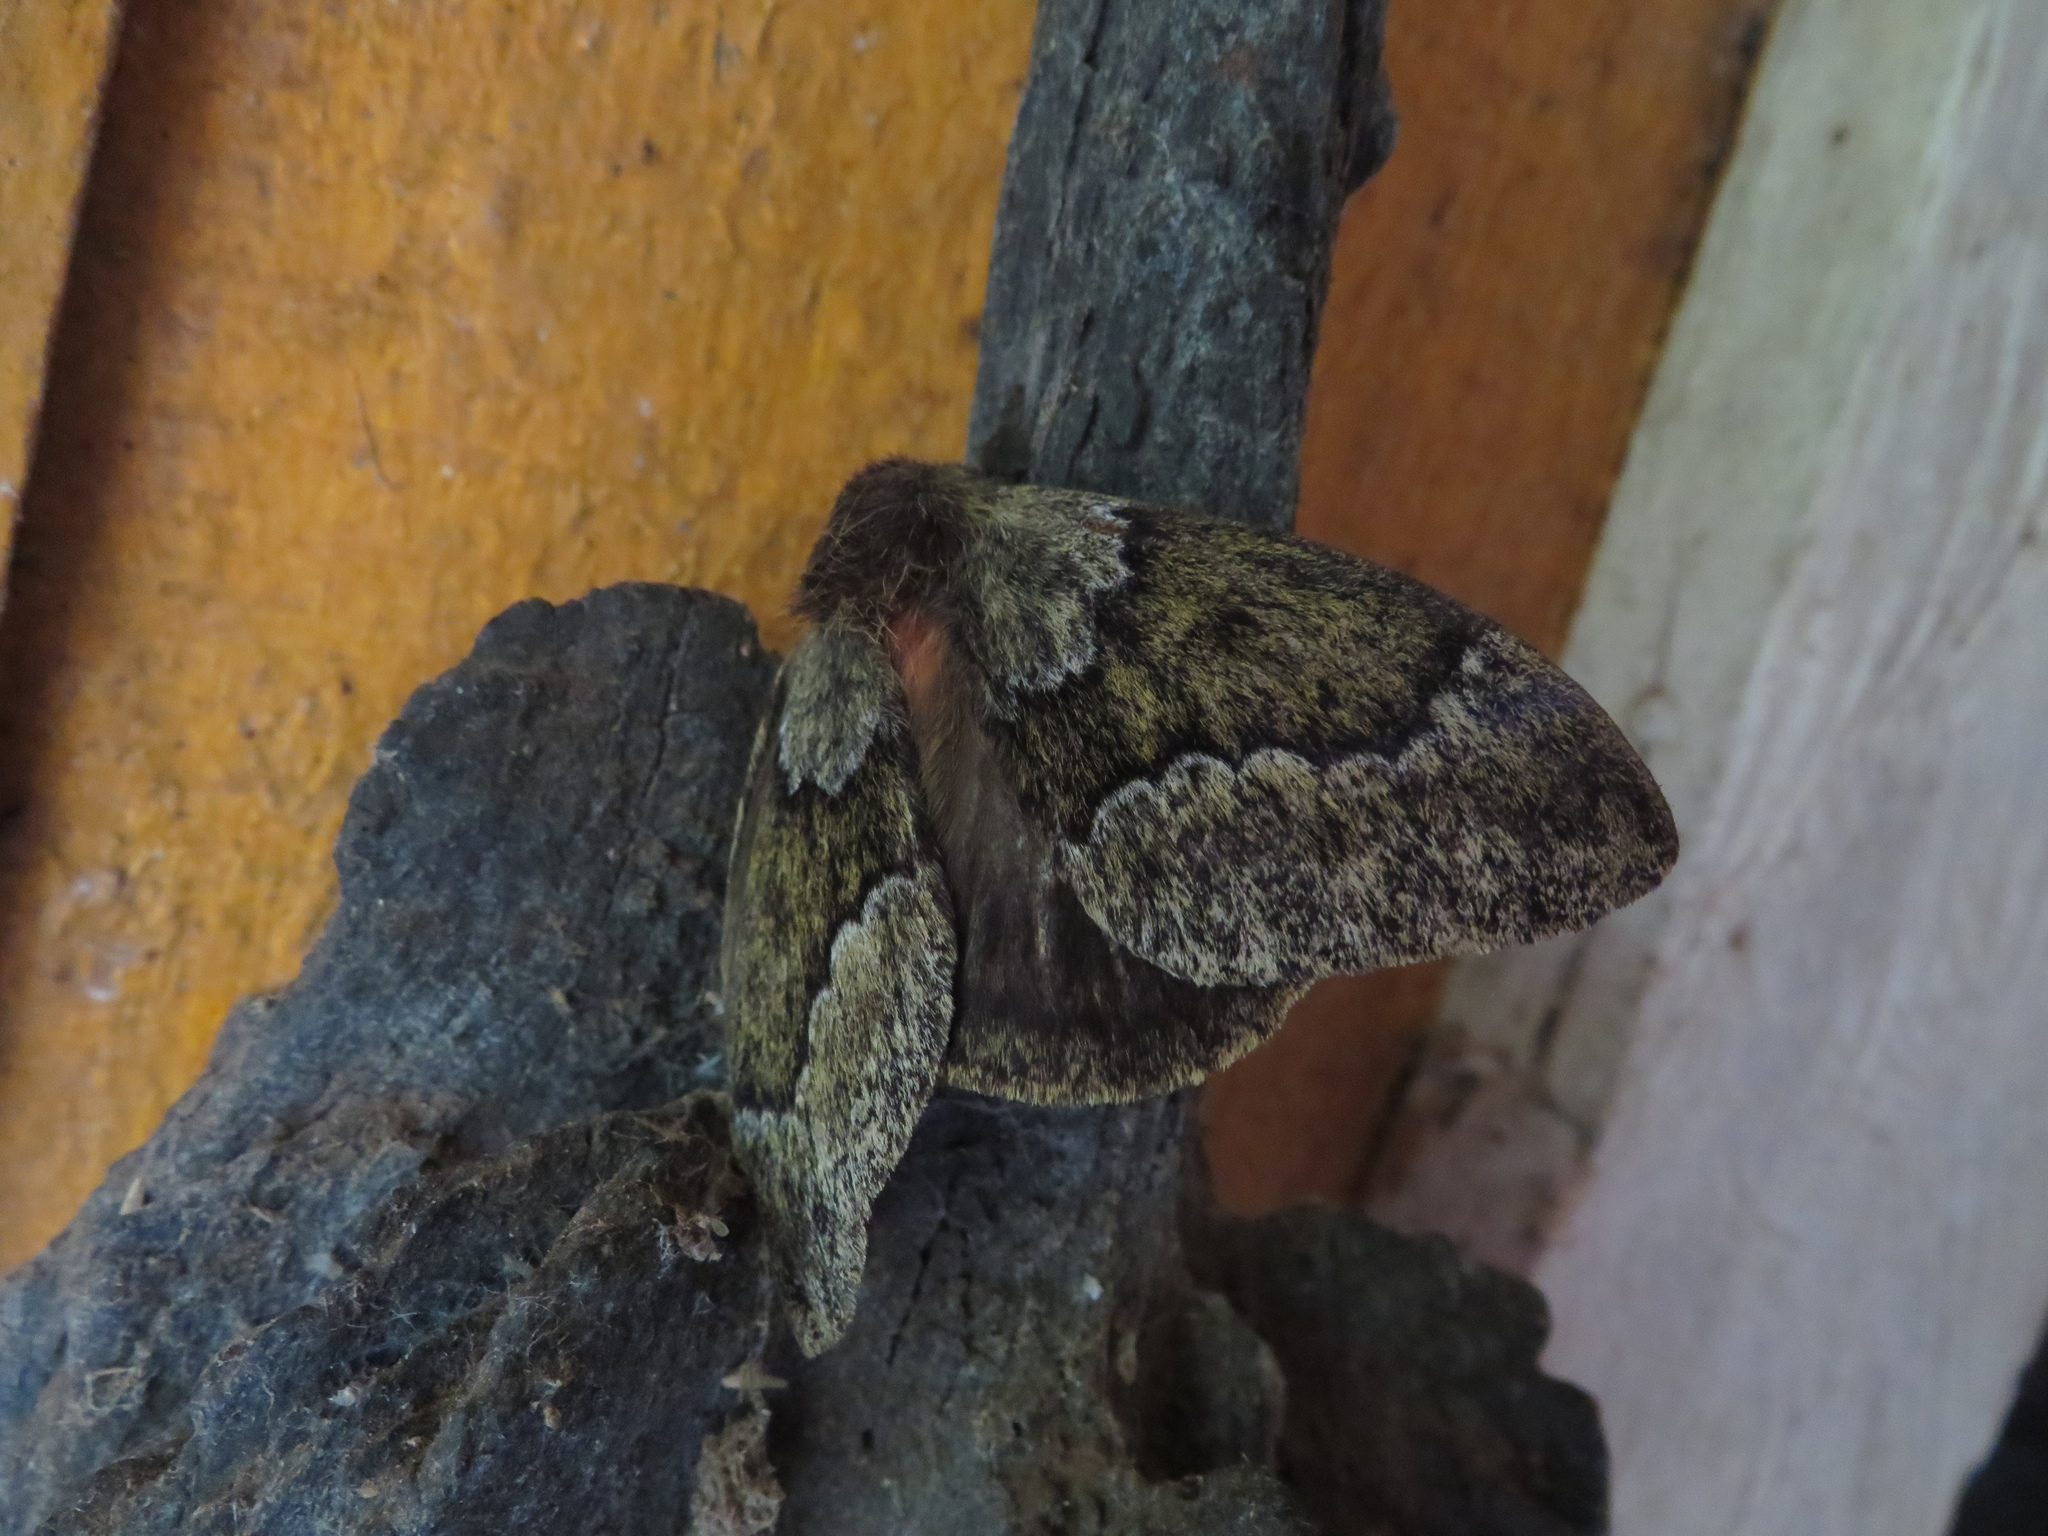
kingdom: Animalia
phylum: Arthropoda
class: Insecta
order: Lepidoptera
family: Saturniidae
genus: Dirphia
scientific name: Dirphia muscosa
